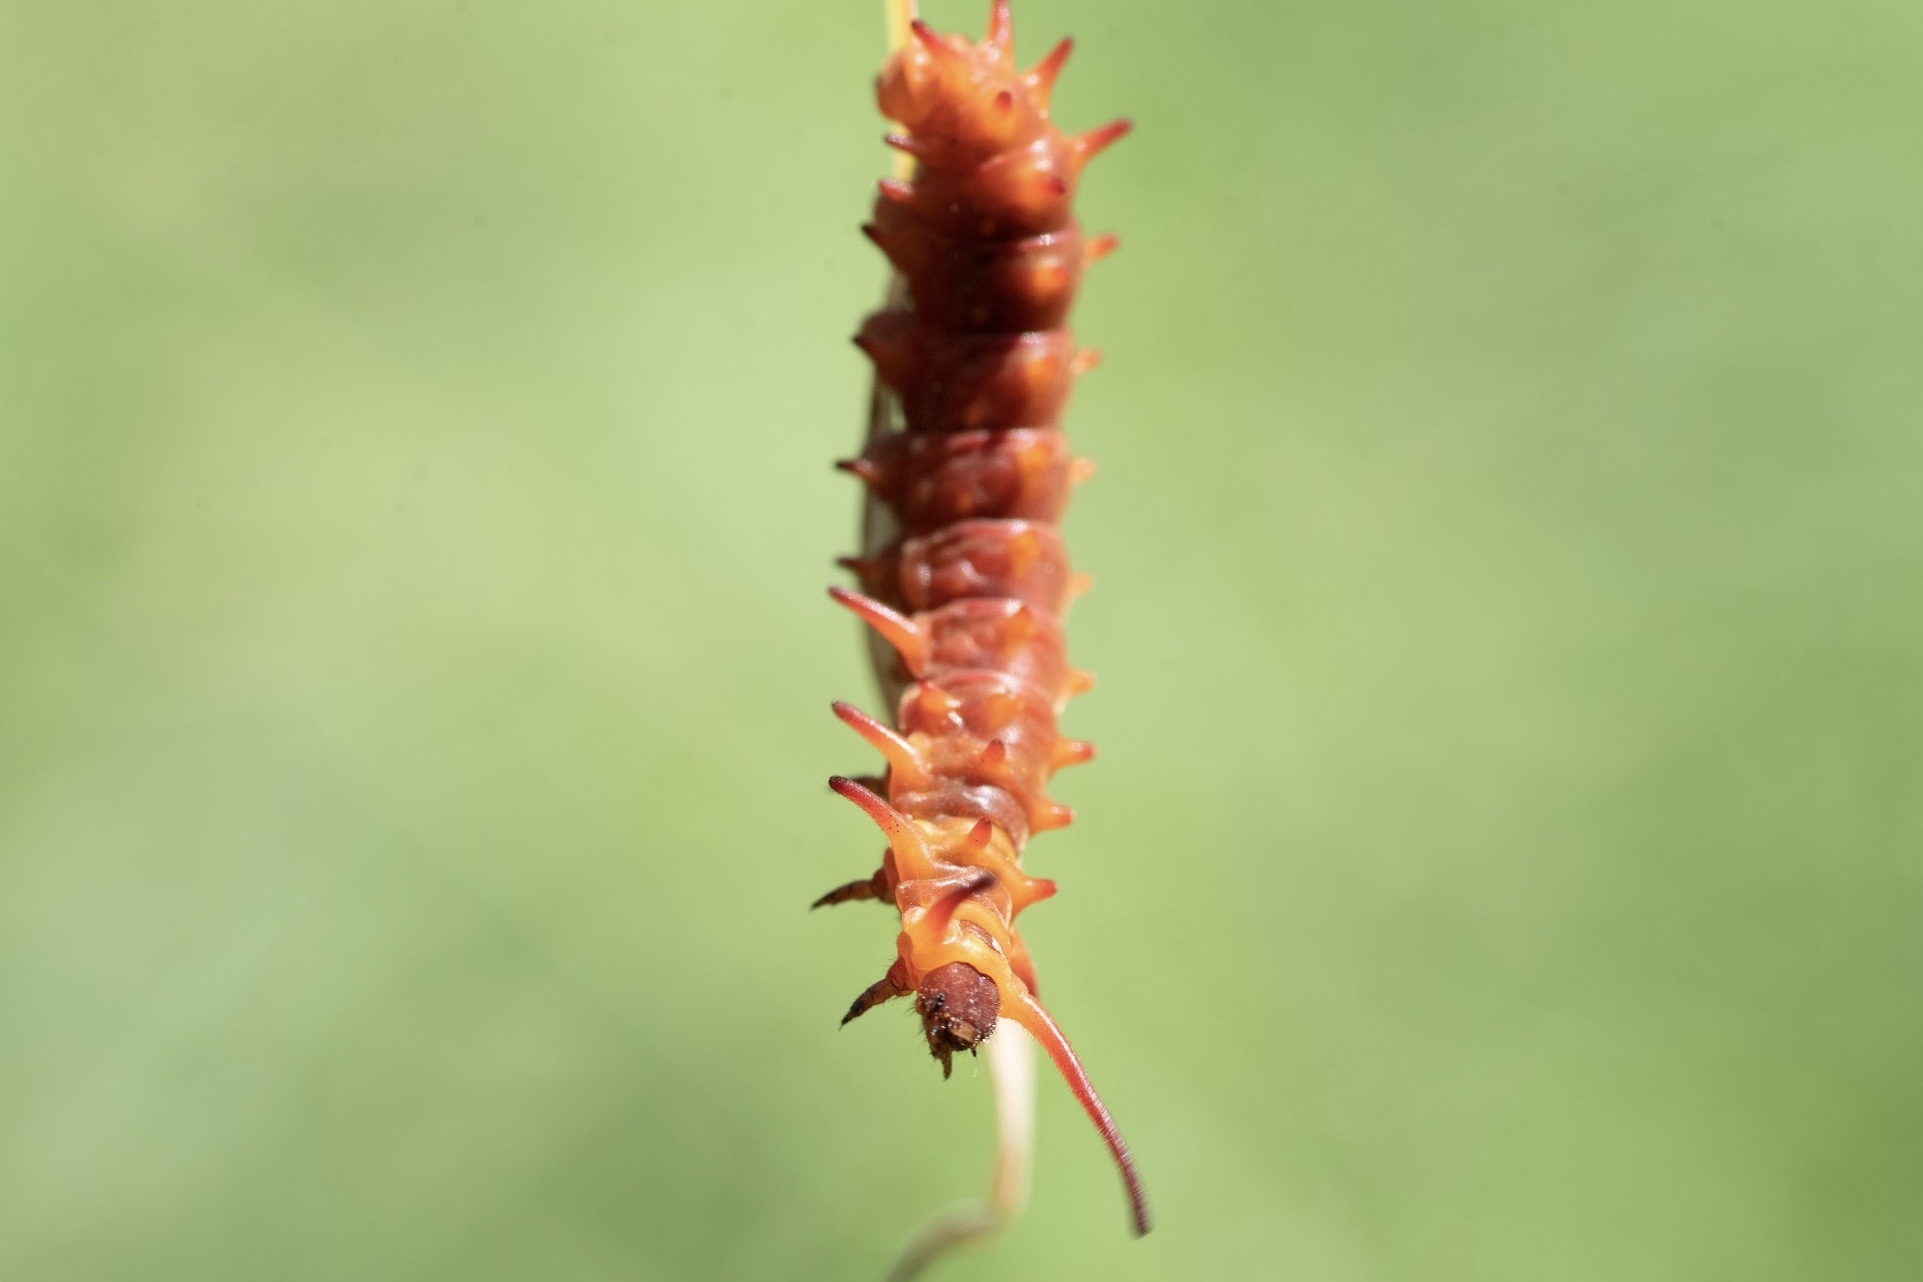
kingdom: Animalia
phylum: Arthropoda
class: Insecta
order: Lepidoptera
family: Papilionidae
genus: Battus
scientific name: Battus philenor
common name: Pipevine swallowtail
